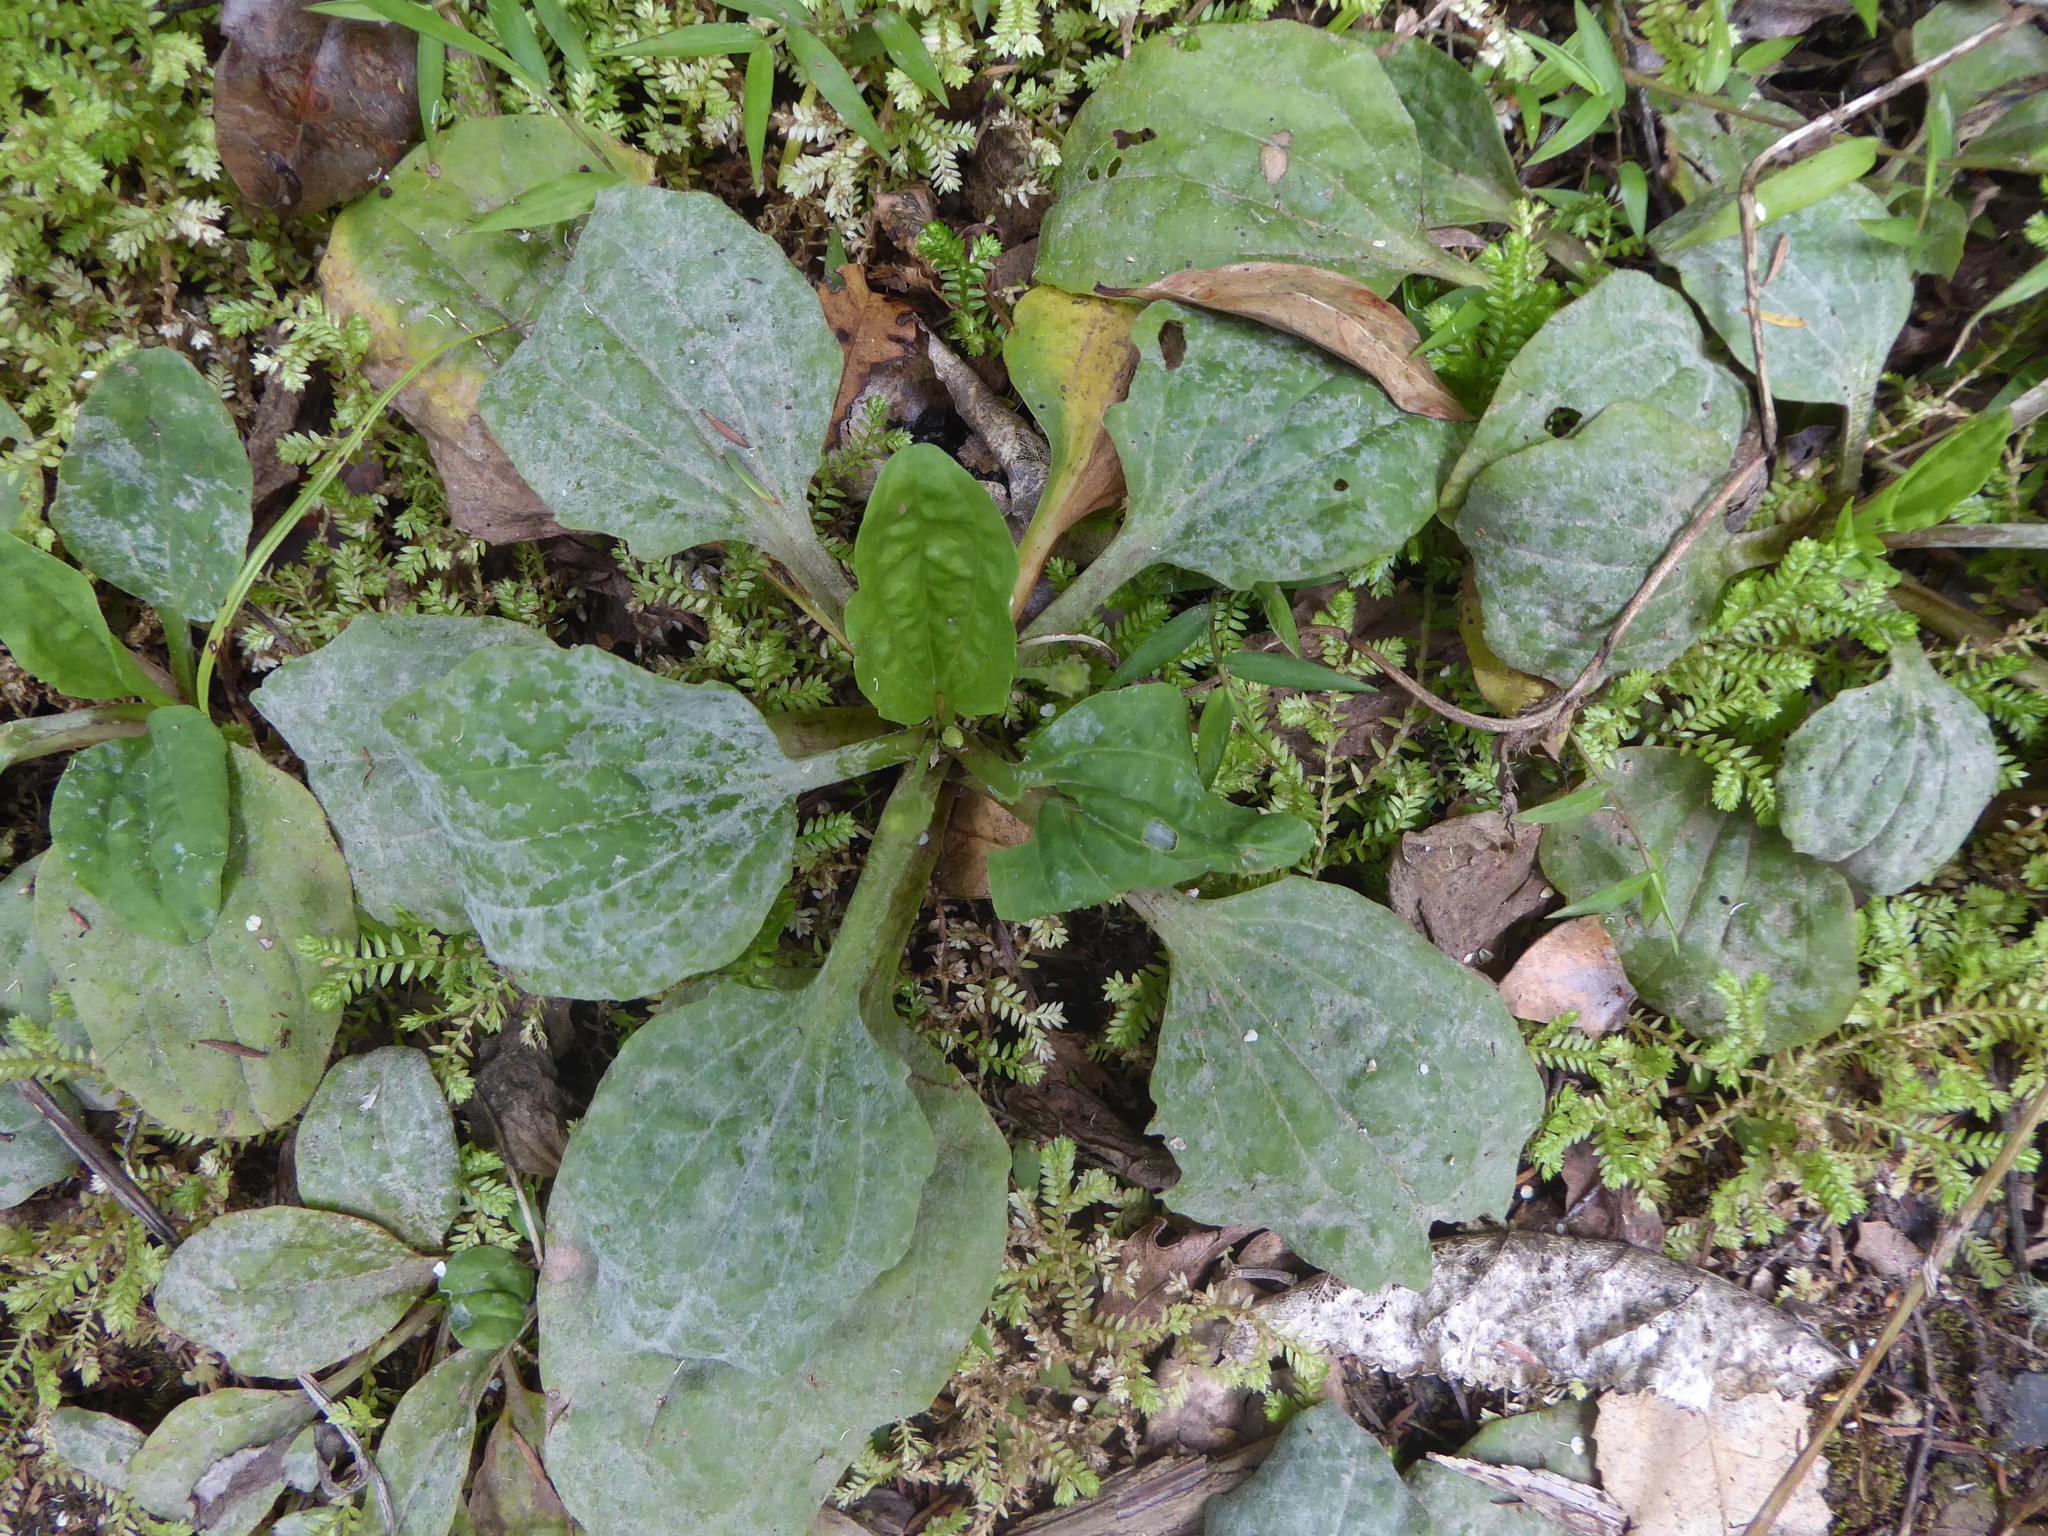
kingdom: Fungi
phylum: Ascomycota
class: Leotiomycetes
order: Helotiales
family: Erysiphaceae
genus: Golovinomyces
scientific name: Golovinomyces sordidus
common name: Plantain mildew
